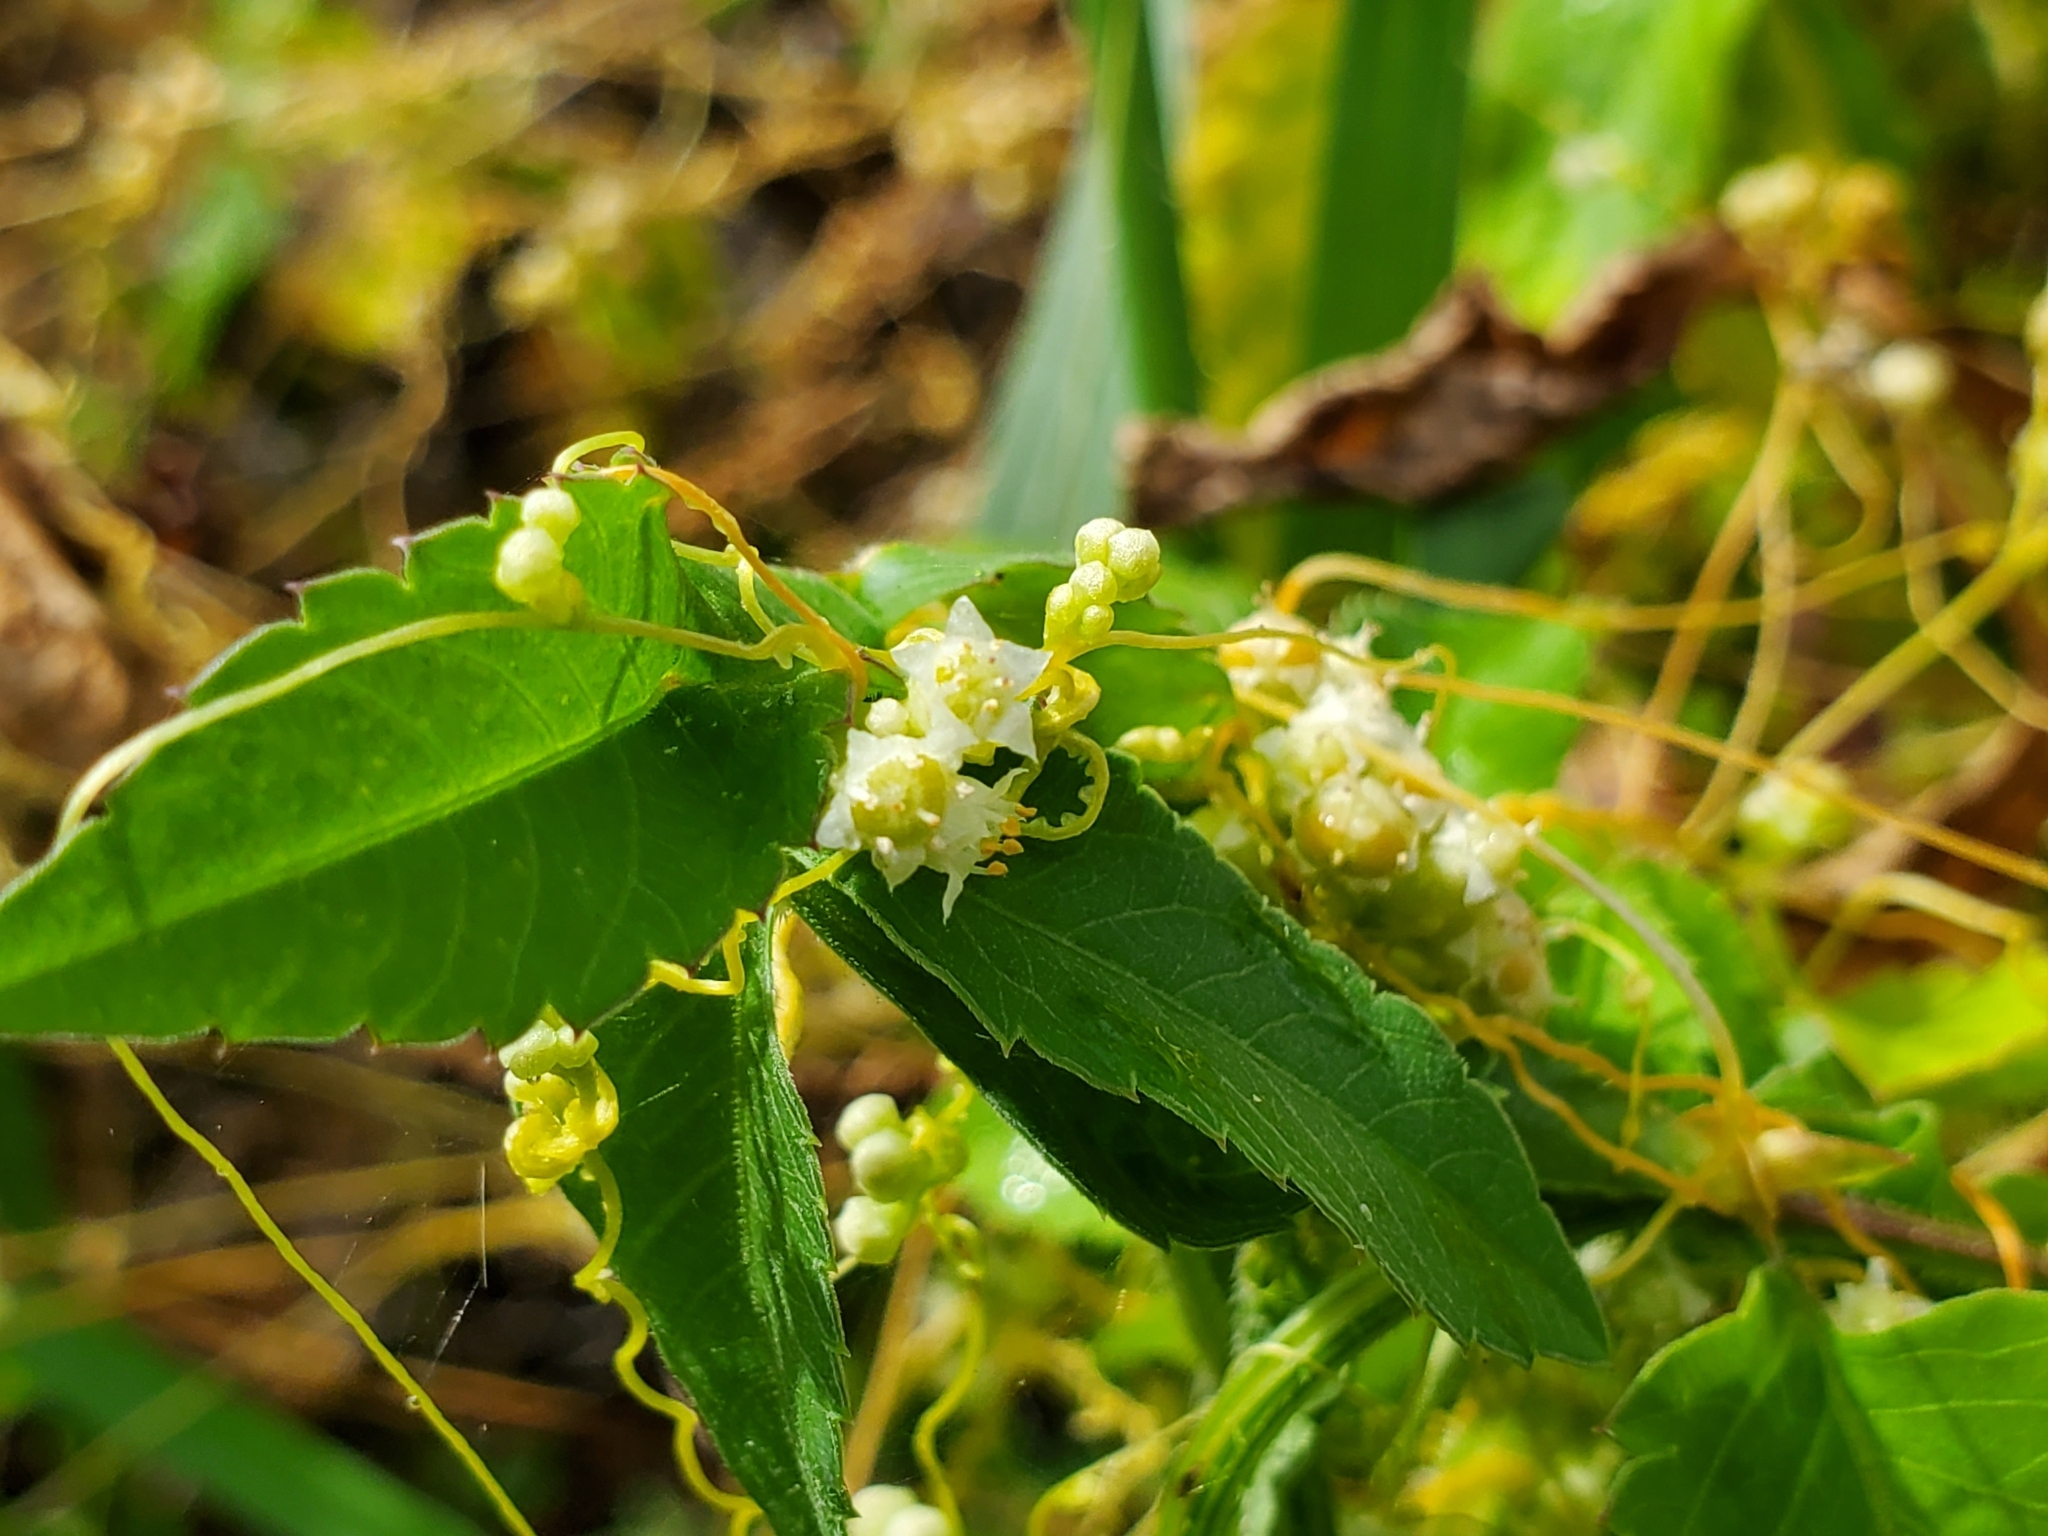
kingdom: Plantae
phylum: Tracheophyta
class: Magnoliopsida
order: Solanales
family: Convolvulaceae
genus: Cuscuta
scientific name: Cuscuta campestris
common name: Yellow dodder
